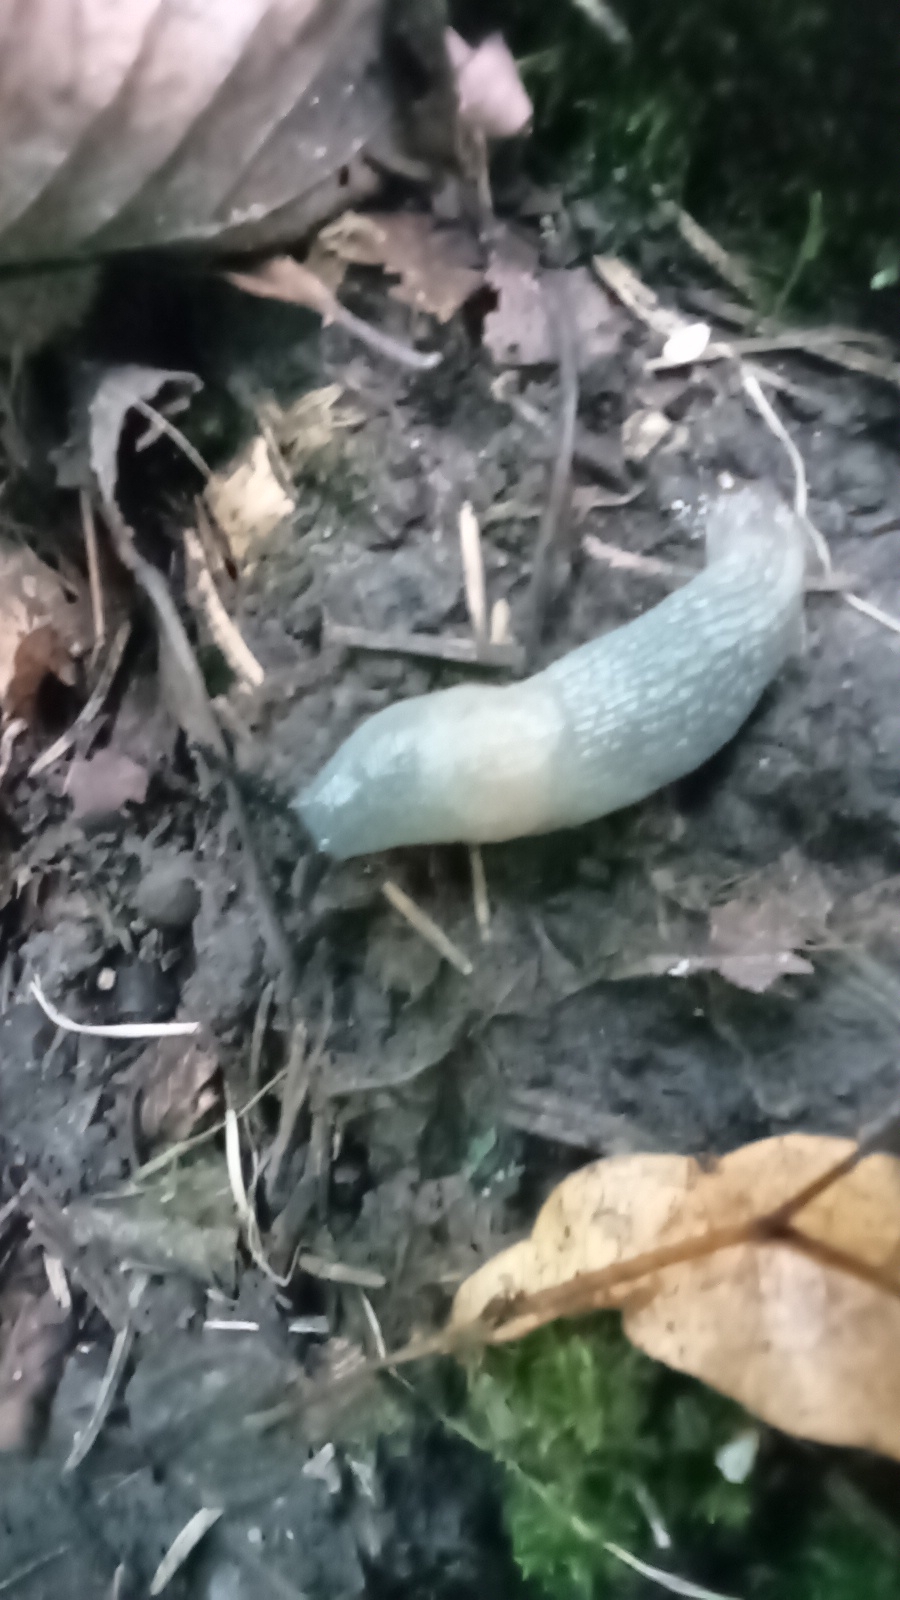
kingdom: Animalia
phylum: Mollusca
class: Gastropoda
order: Stylommatophora
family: Agriolimacidae
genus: Krynickillus
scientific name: Krynickillus melanocephalus
